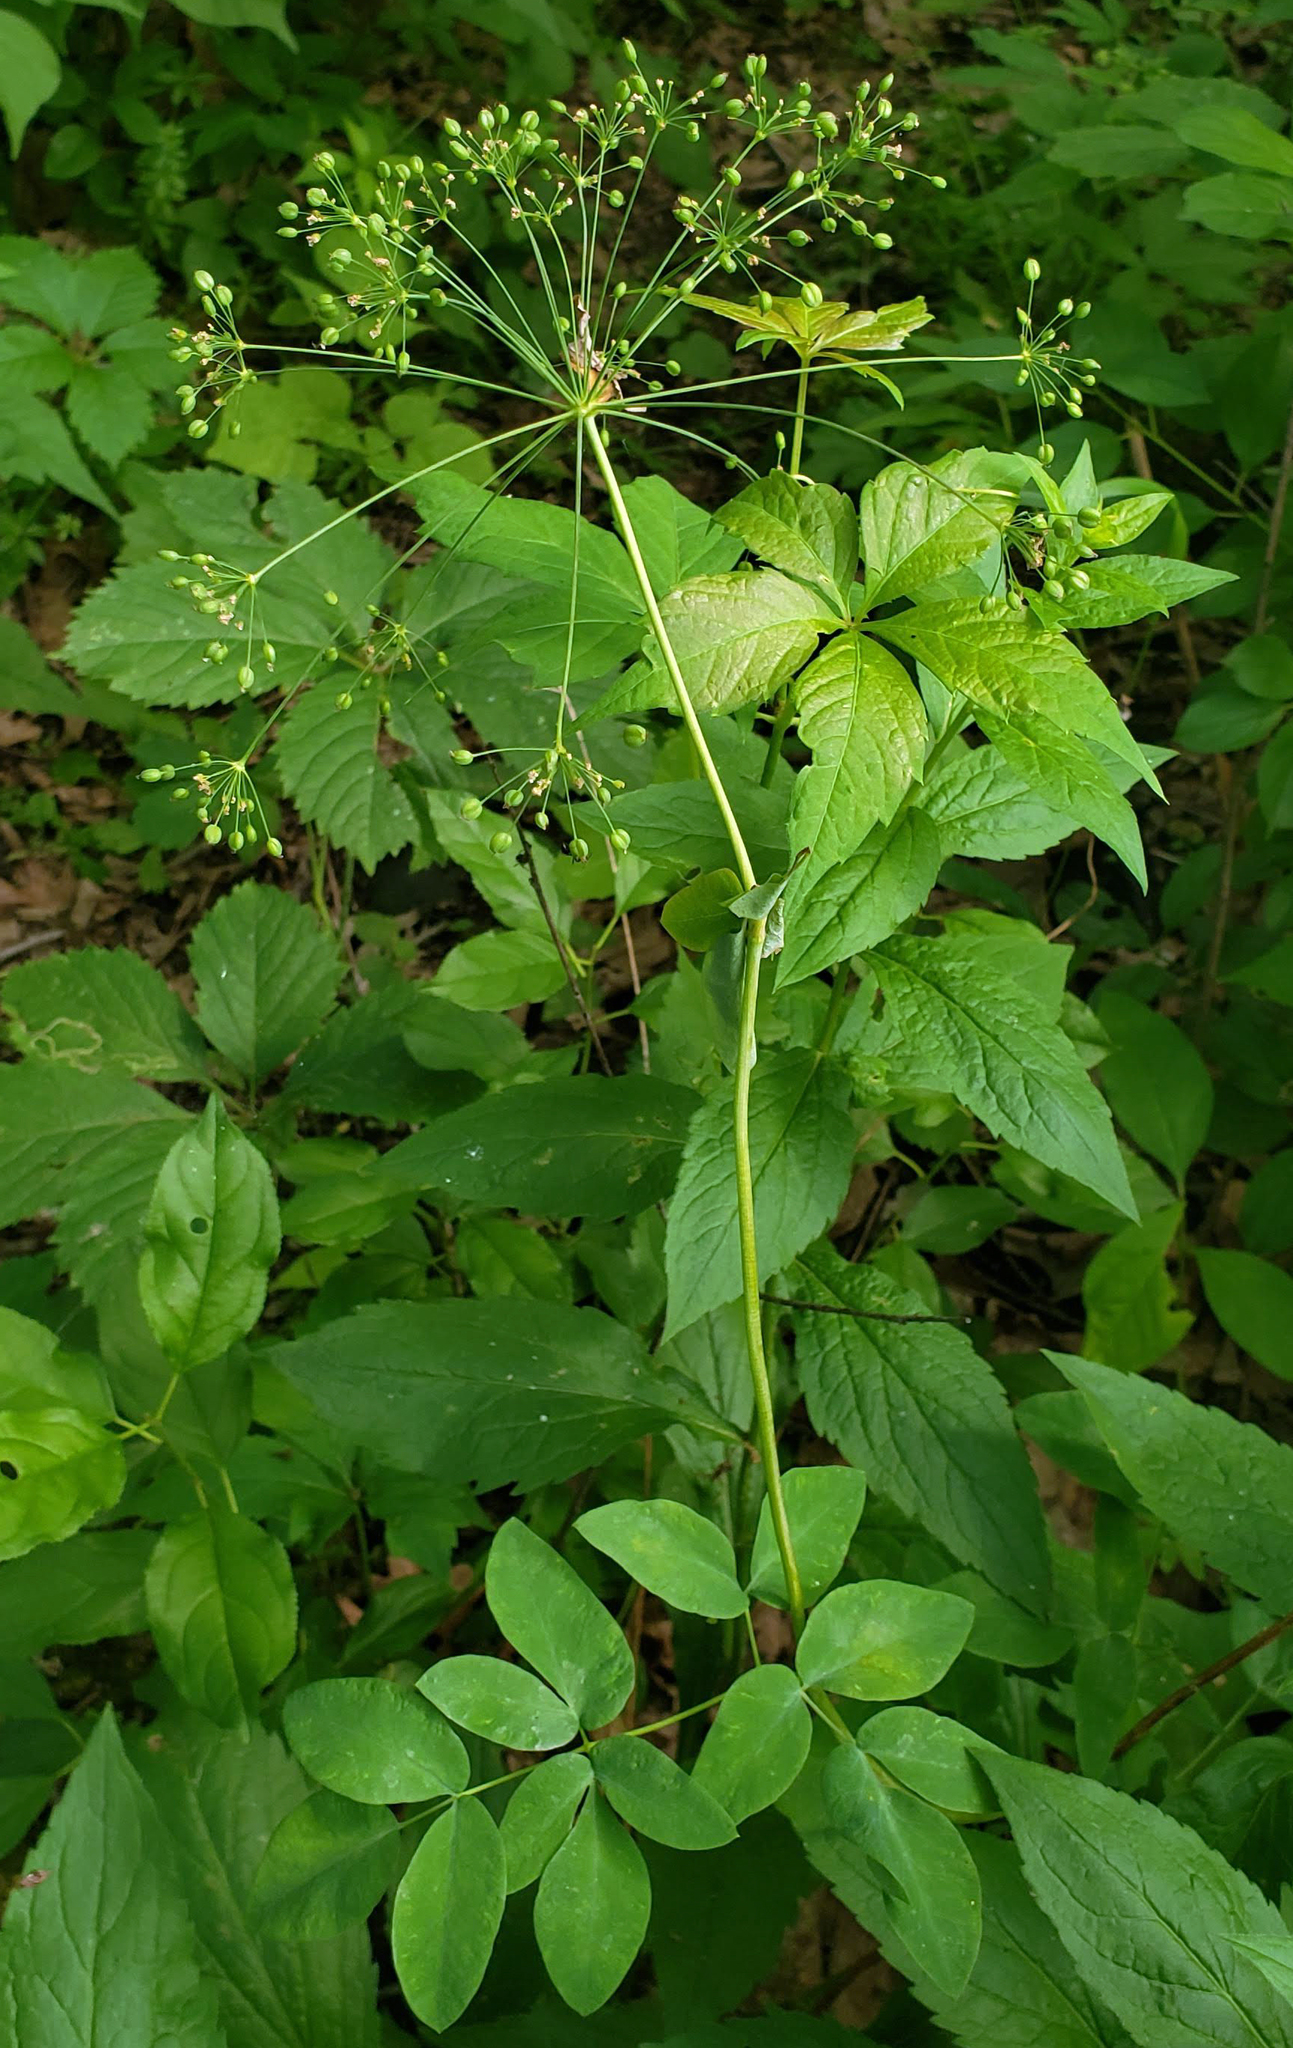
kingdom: Plantae
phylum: Tracheophyta
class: Magnoliopsida
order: Apiales
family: Apiaceae
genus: Taenidia
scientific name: Taenidia integerrima
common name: Golden alexander
